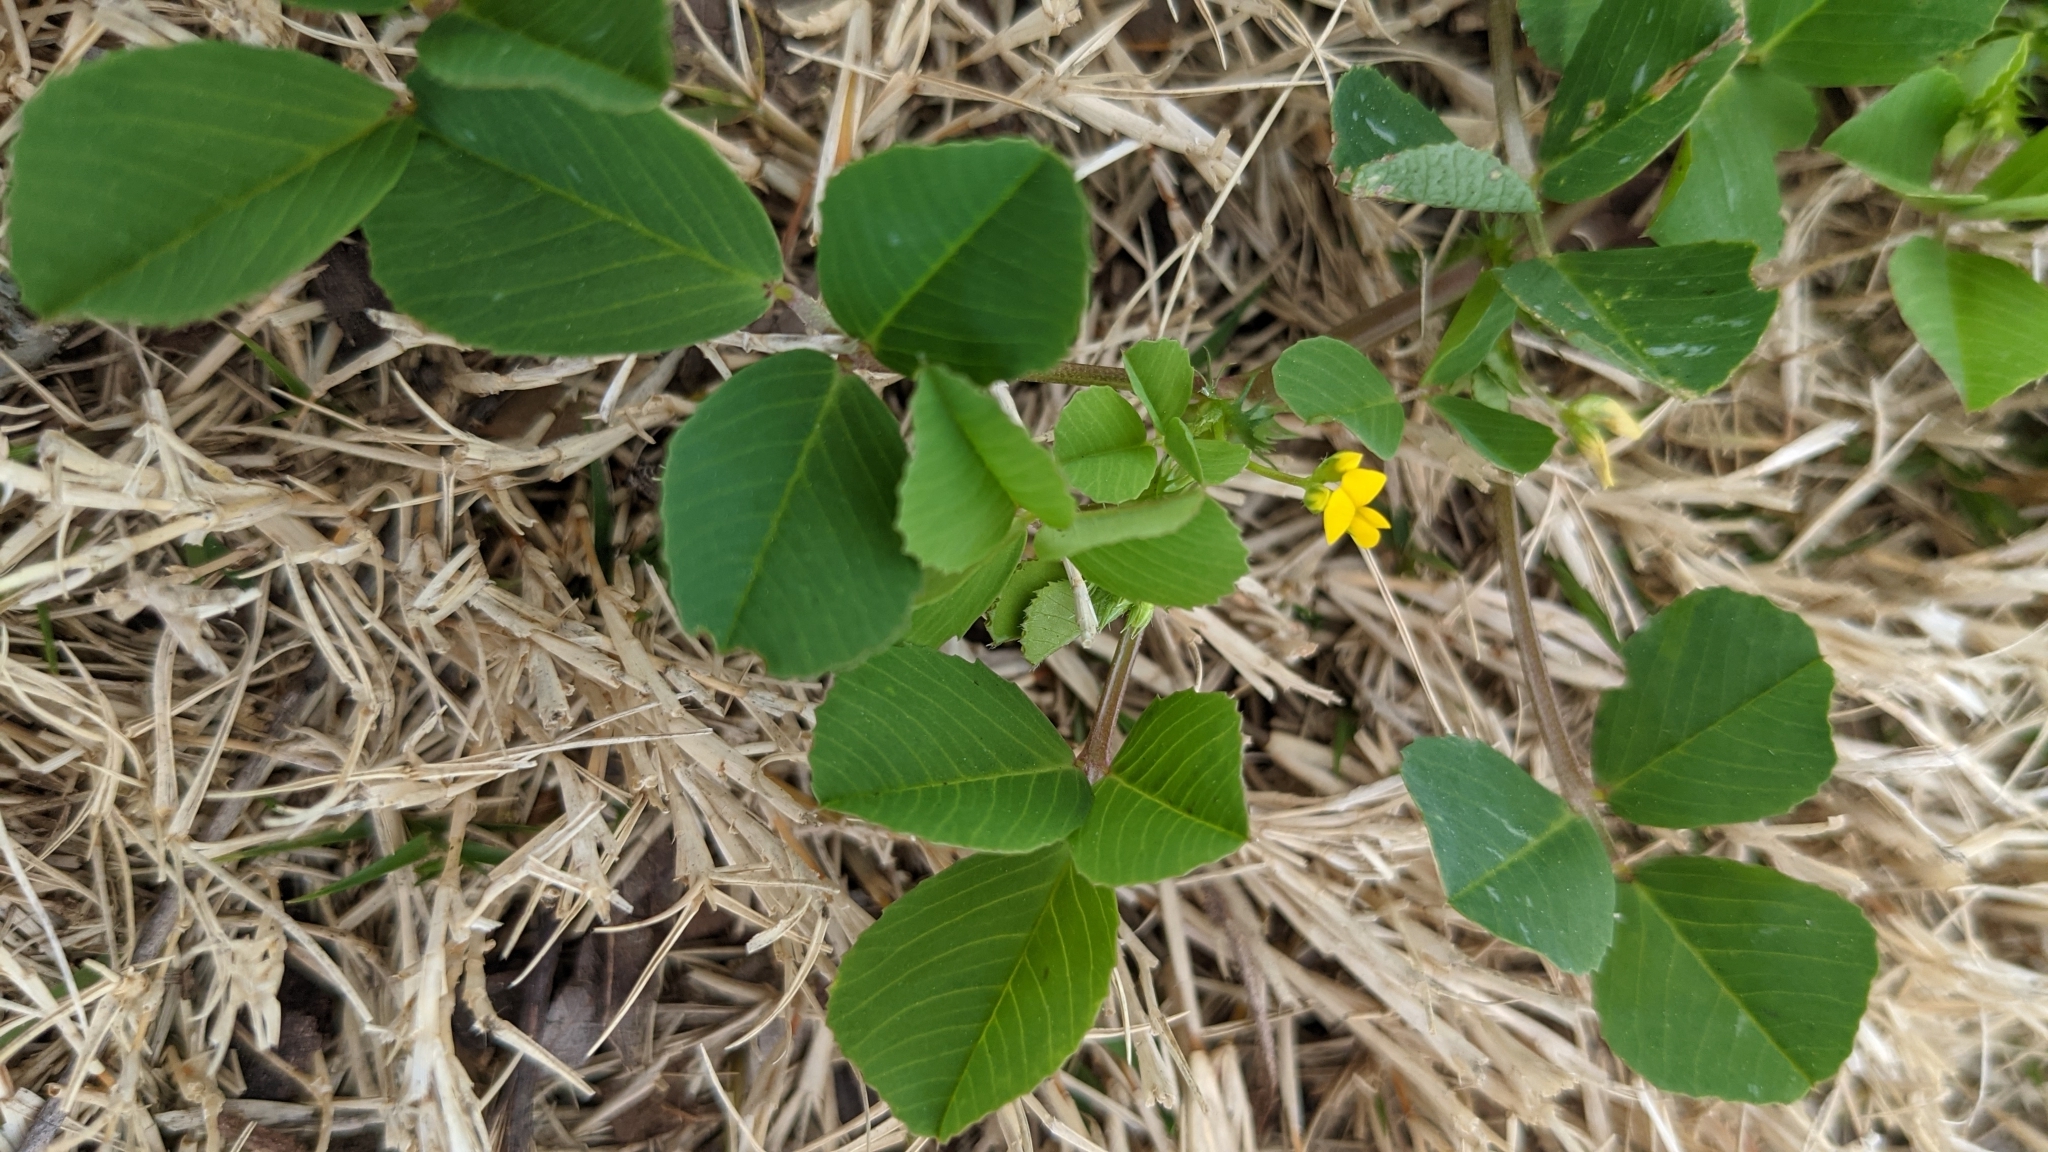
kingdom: Plantae
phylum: Tracheophyta
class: Magnoliopsida
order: Fabales
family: Fabaceae
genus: Medicago
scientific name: Medicago polymorpha
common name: Burclover
